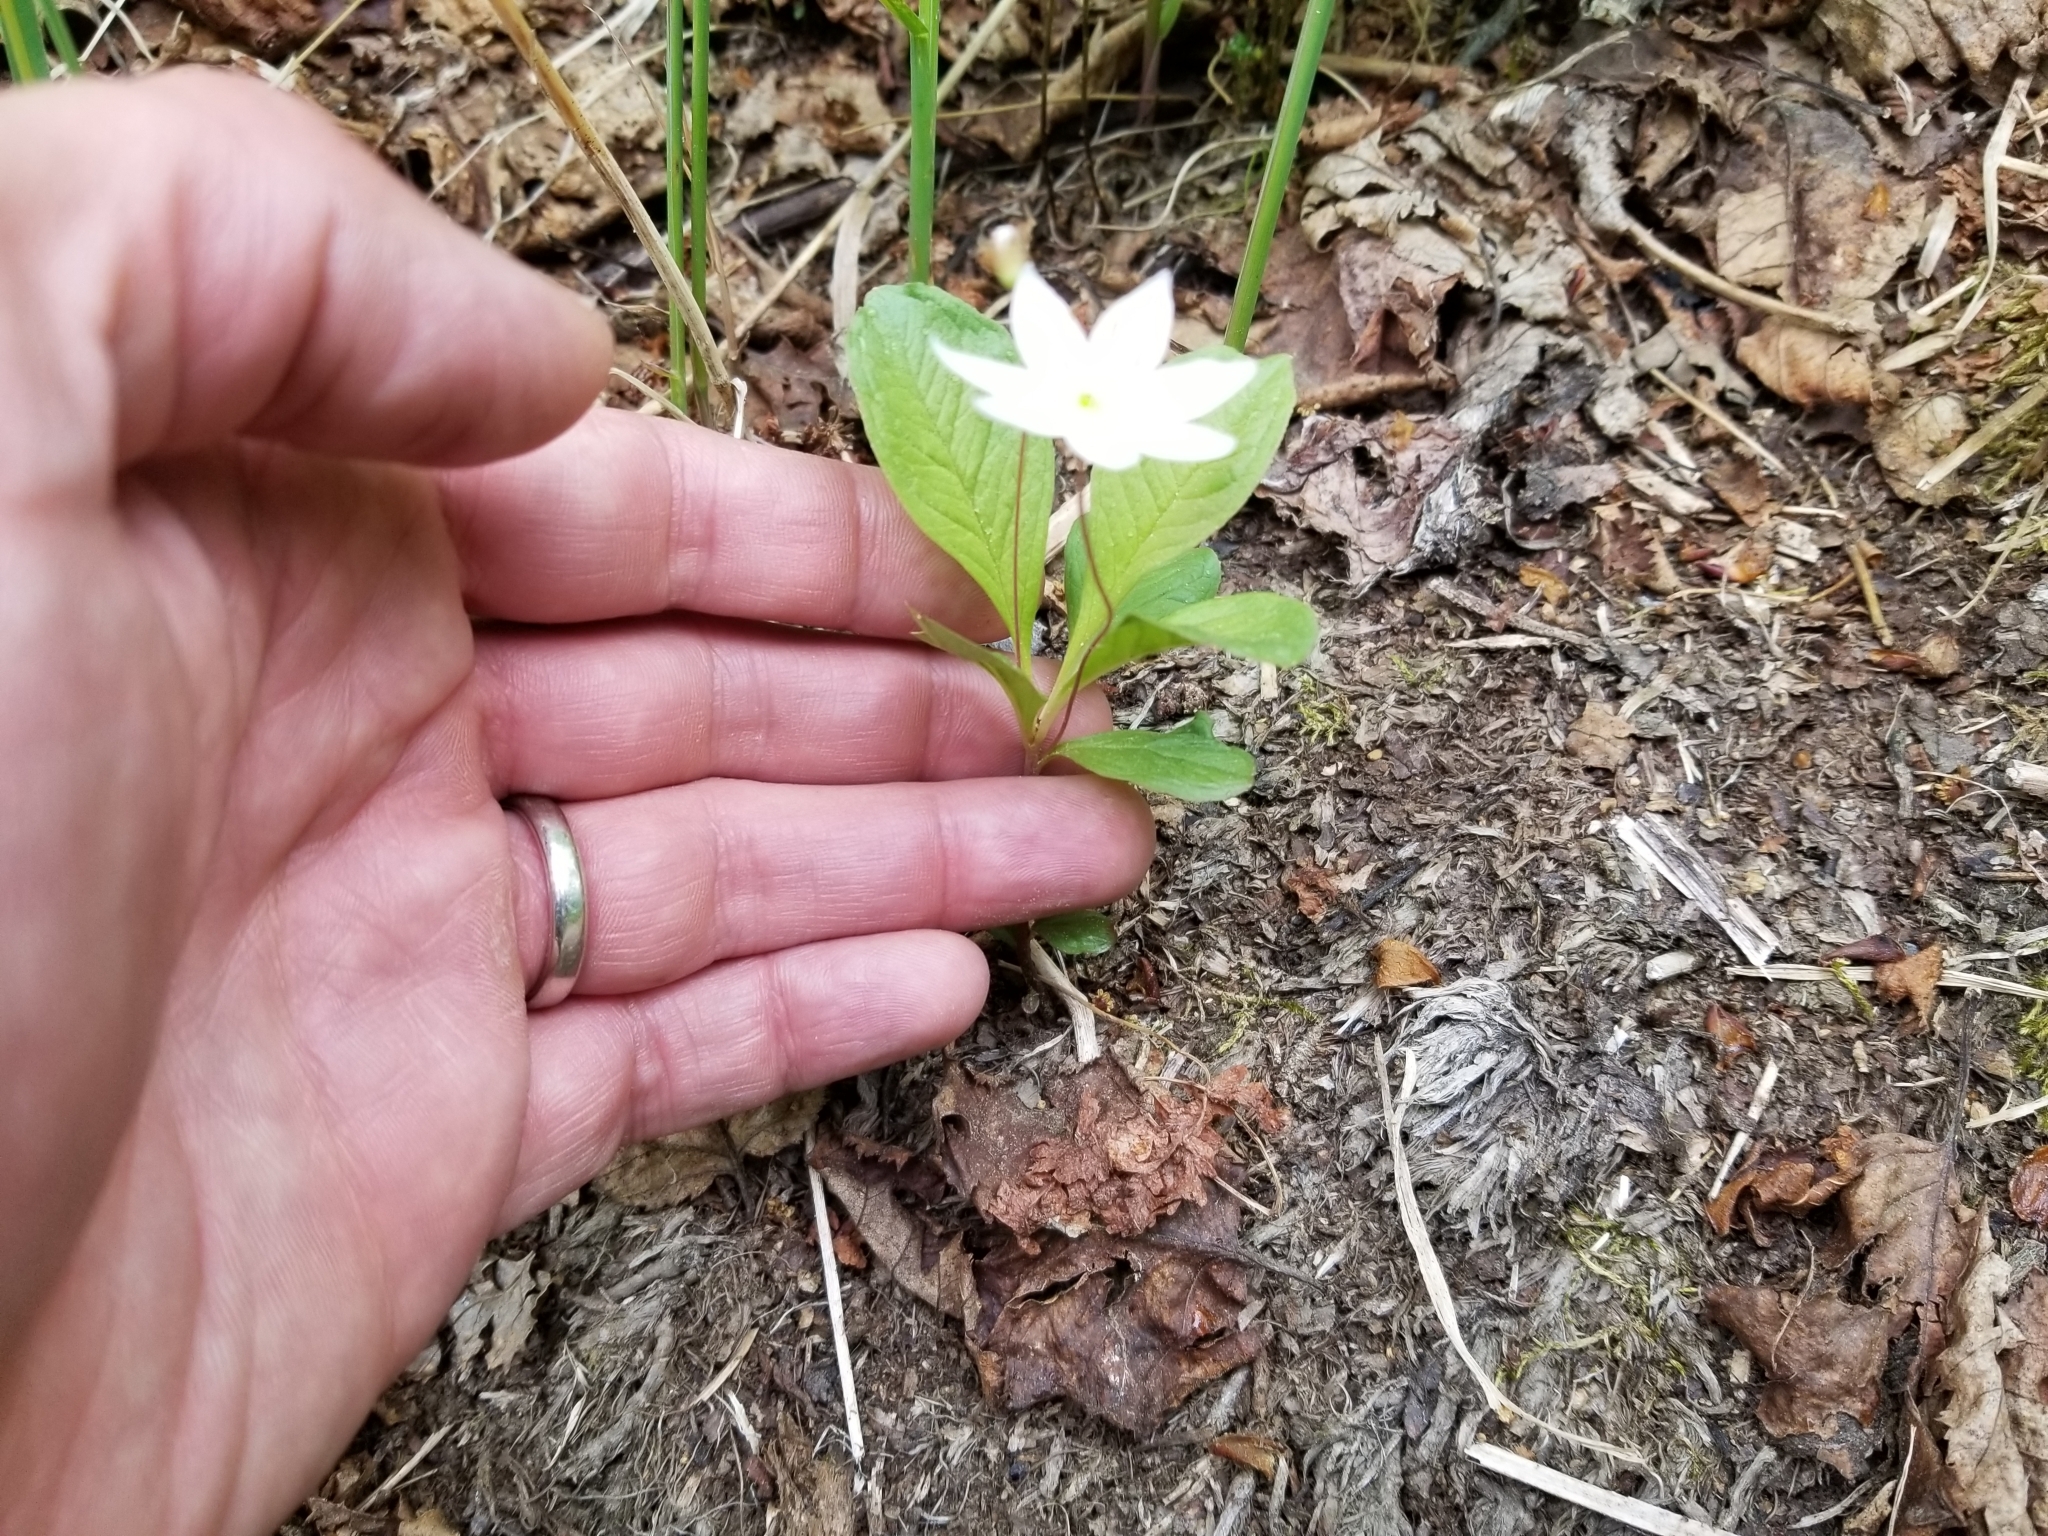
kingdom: Plantae
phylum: Tracheophyta
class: Magnoliopsida
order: Ericales
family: Primulaceae
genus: Lysimachia
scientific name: Lysimachia europaea
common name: Arctic starflower
